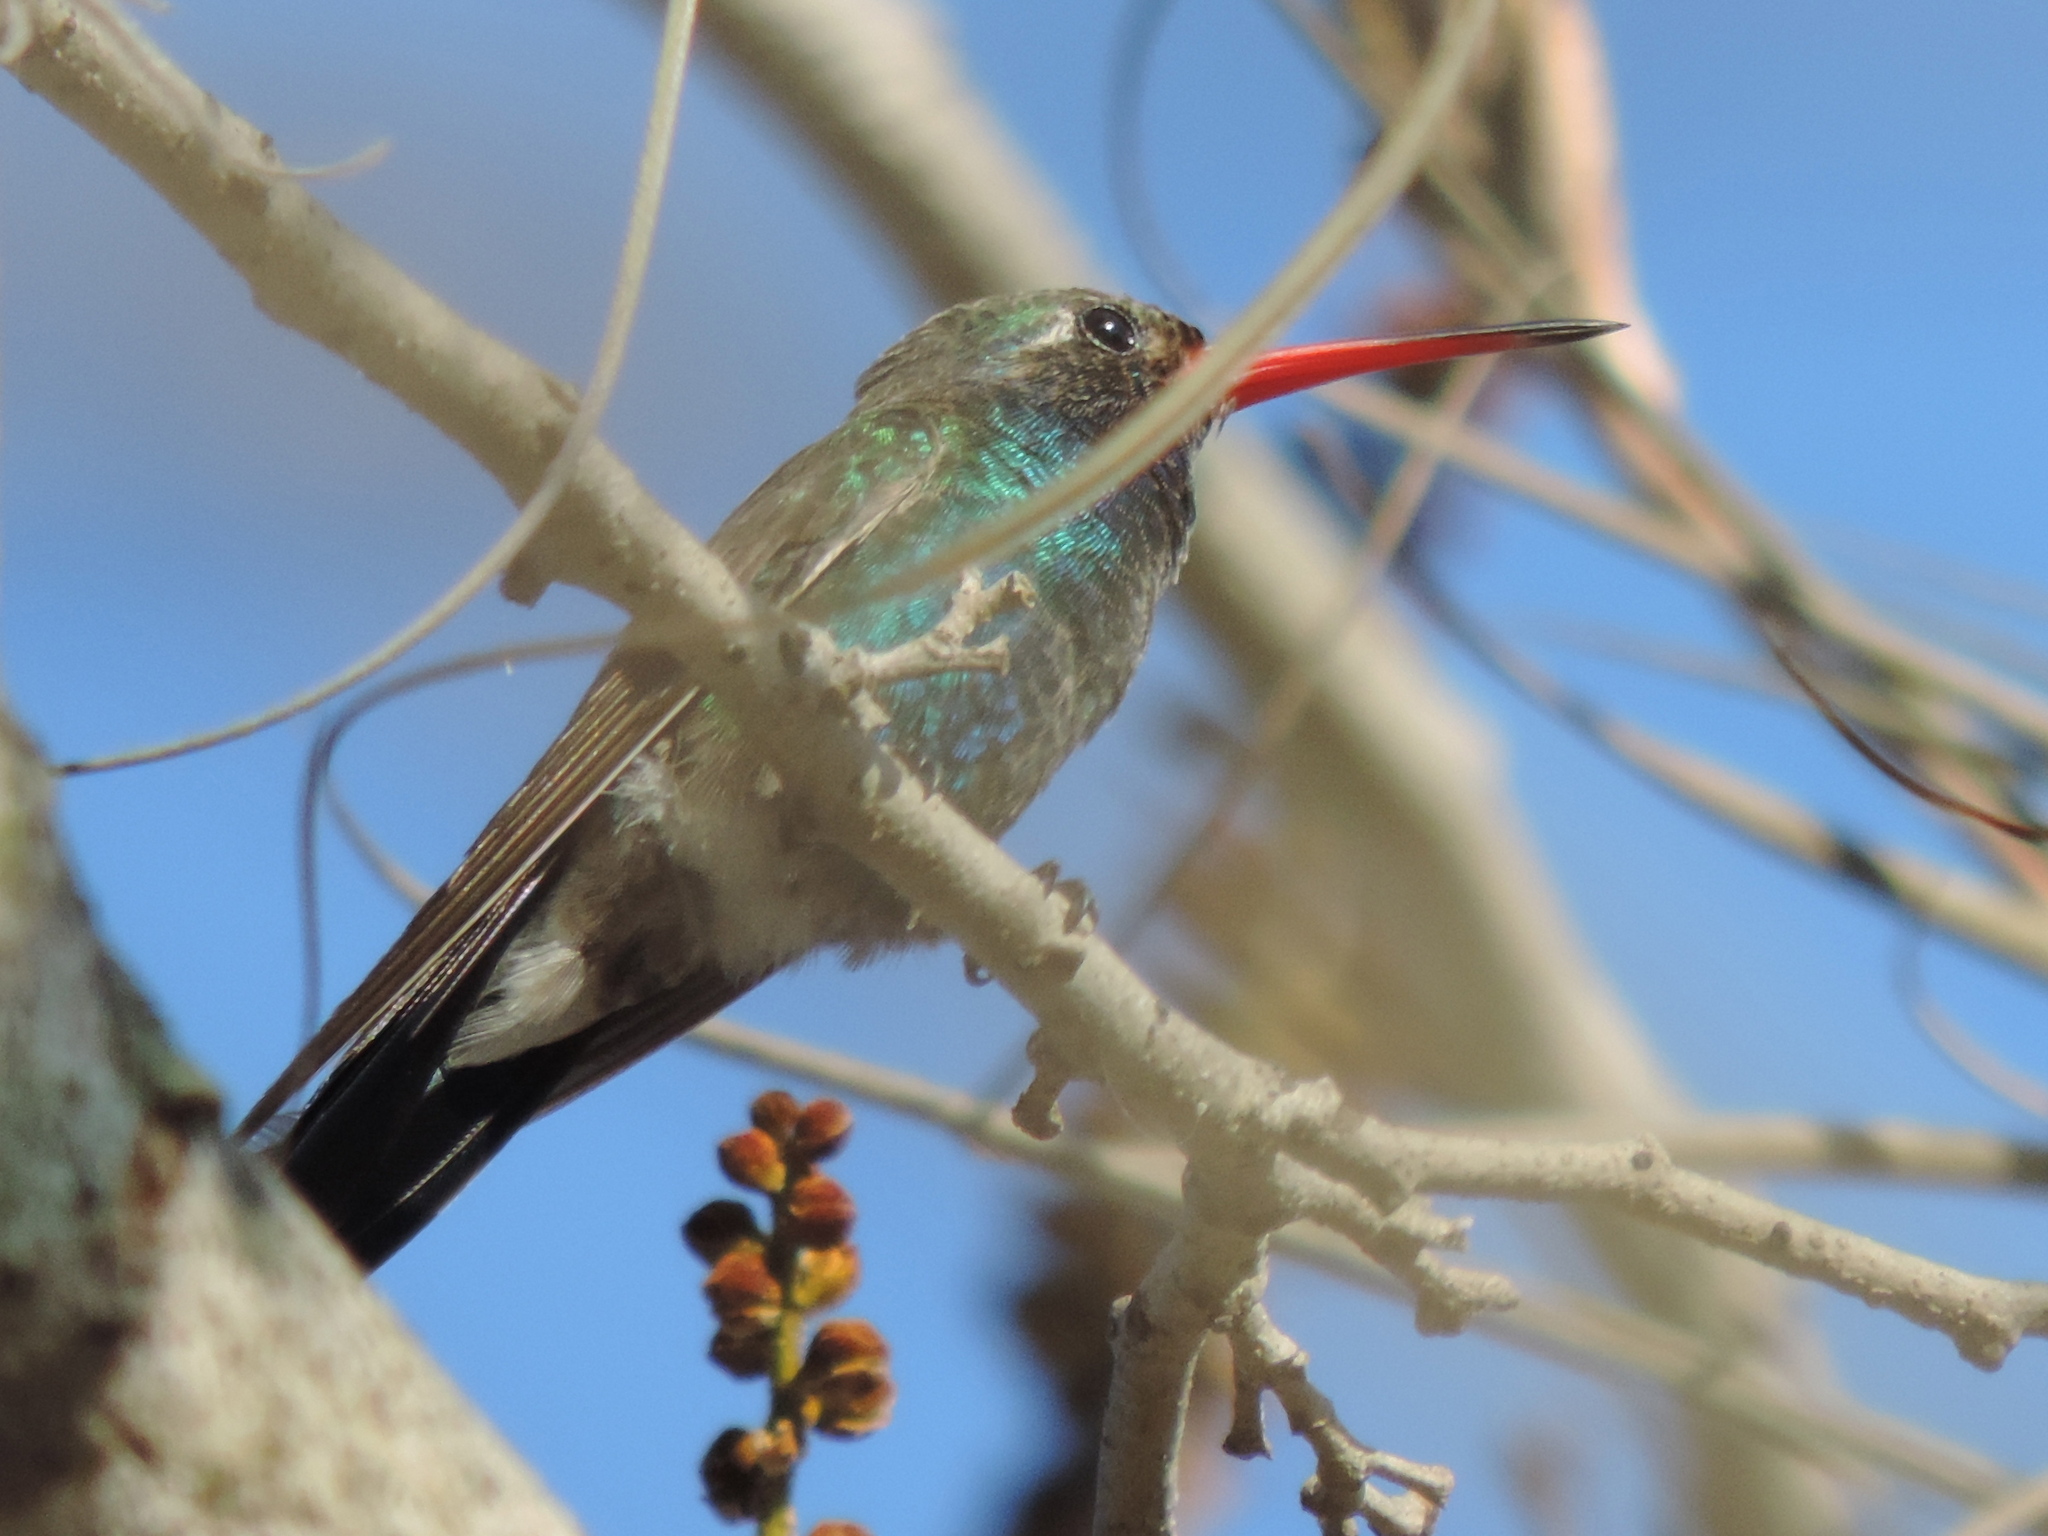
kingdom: Animalia
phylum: Chordata
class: Aves
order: Apodiformes
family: Trochilidae
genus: Cynanthus
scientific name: Cynanthus latirostris
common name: Broad-billed hummingbird
